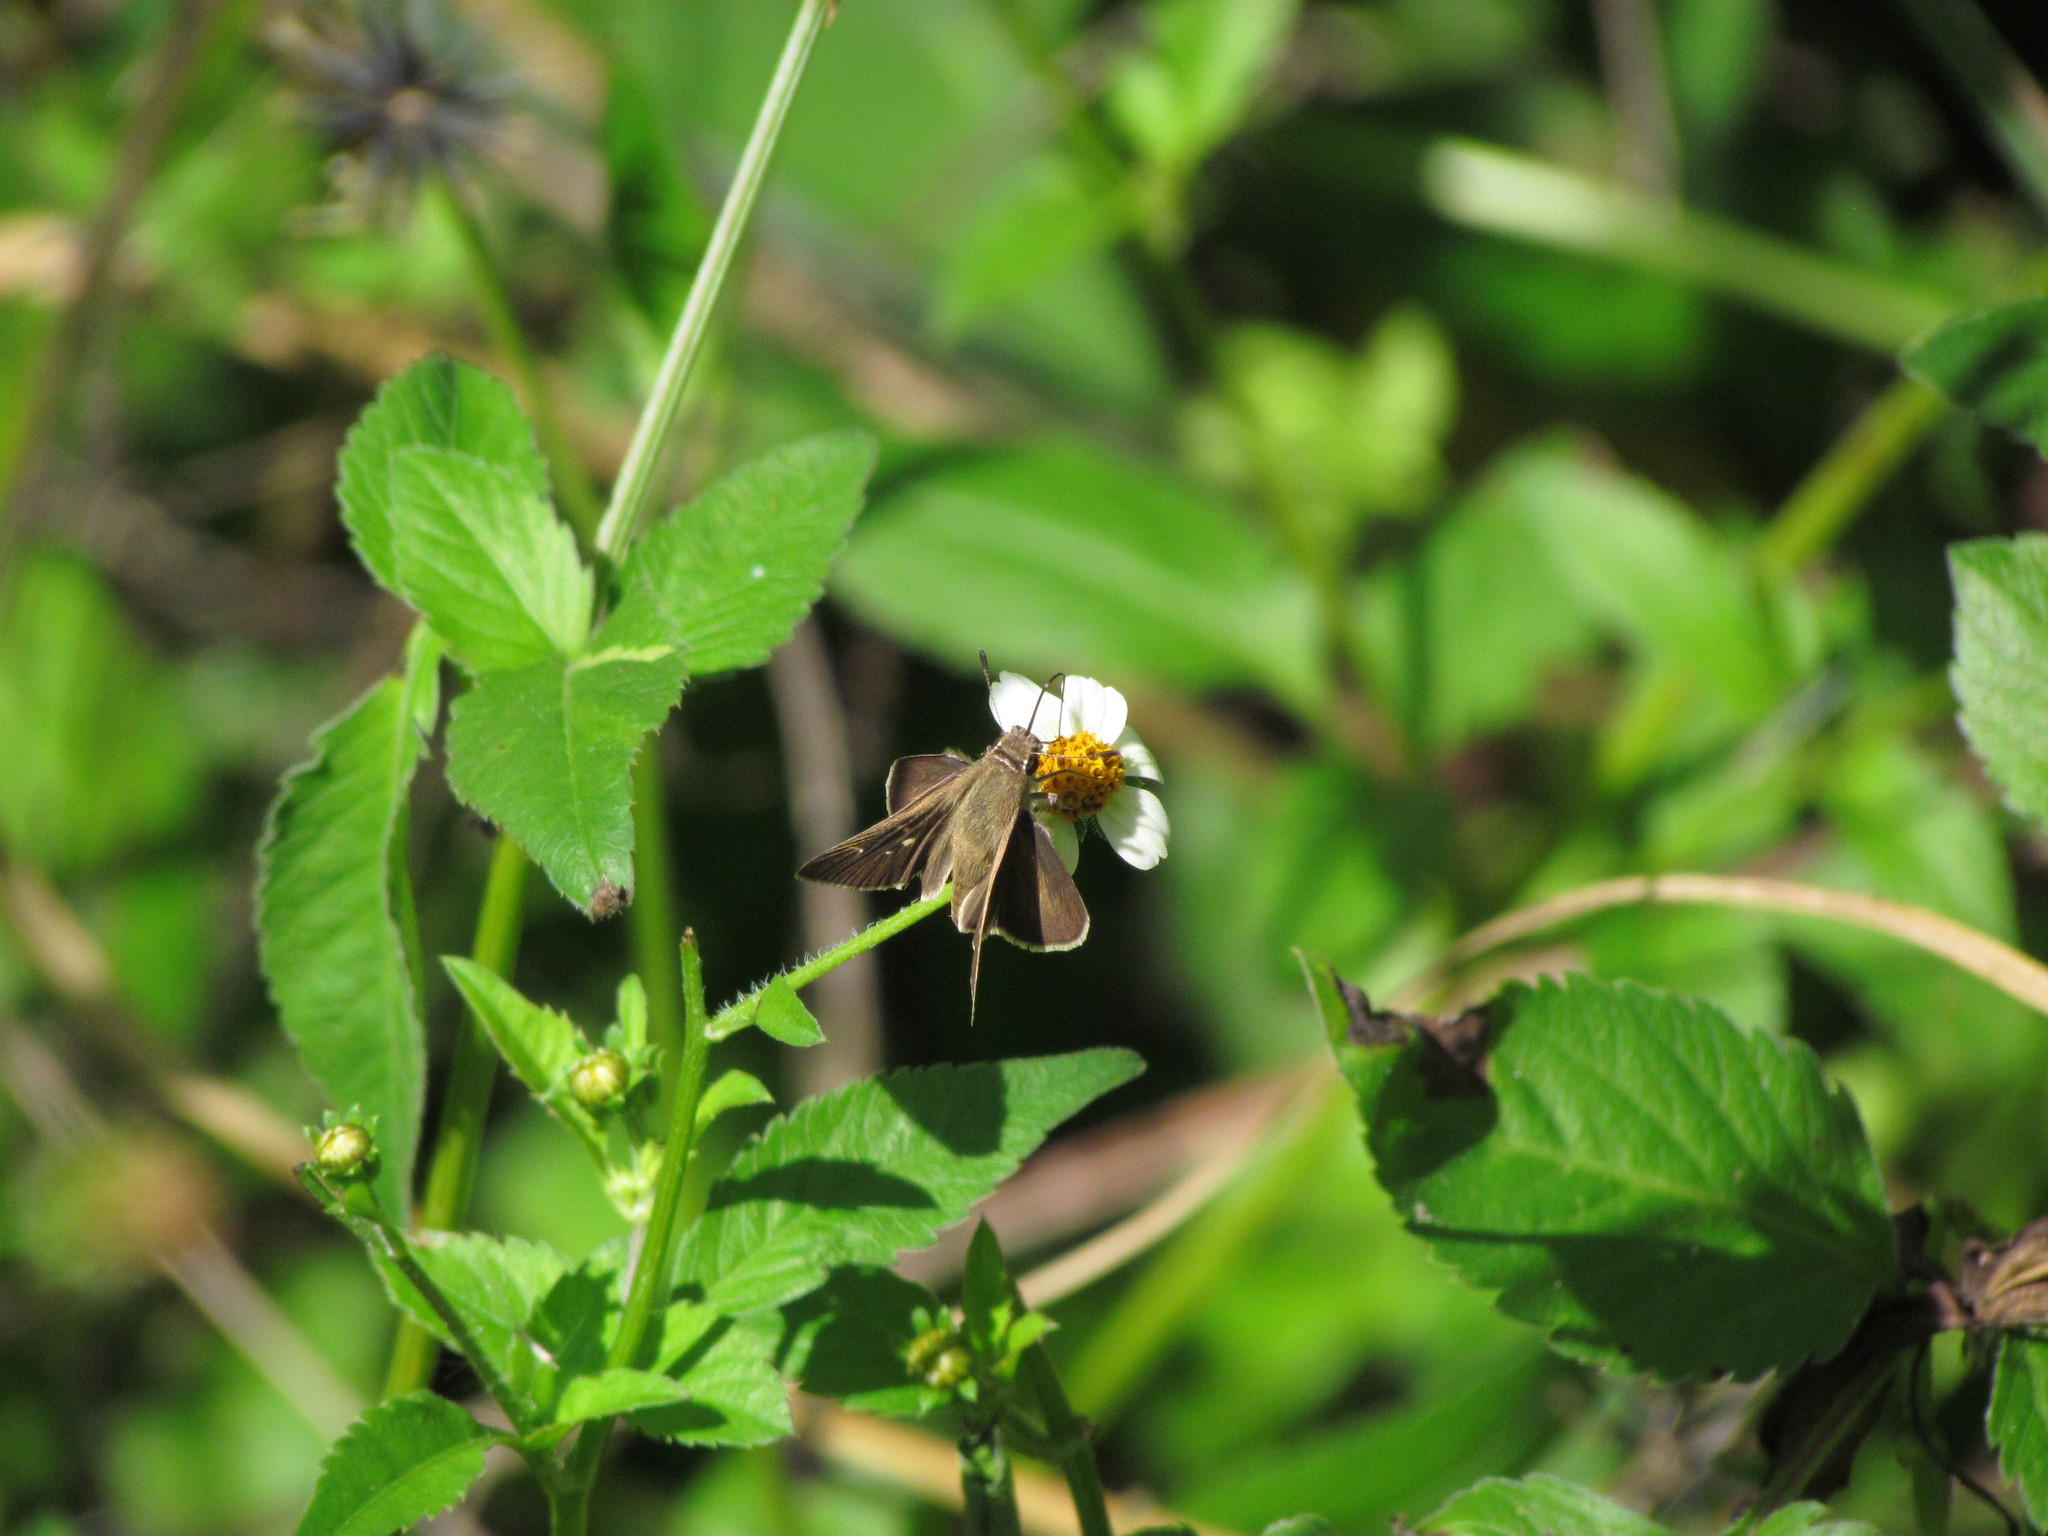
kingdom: Animalia
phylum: Arthropoda
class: Insecta
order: Lepidoptera
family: Hesperiidae
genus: Lerodea
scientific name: Lerodea eufala
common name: Eufala skipper
